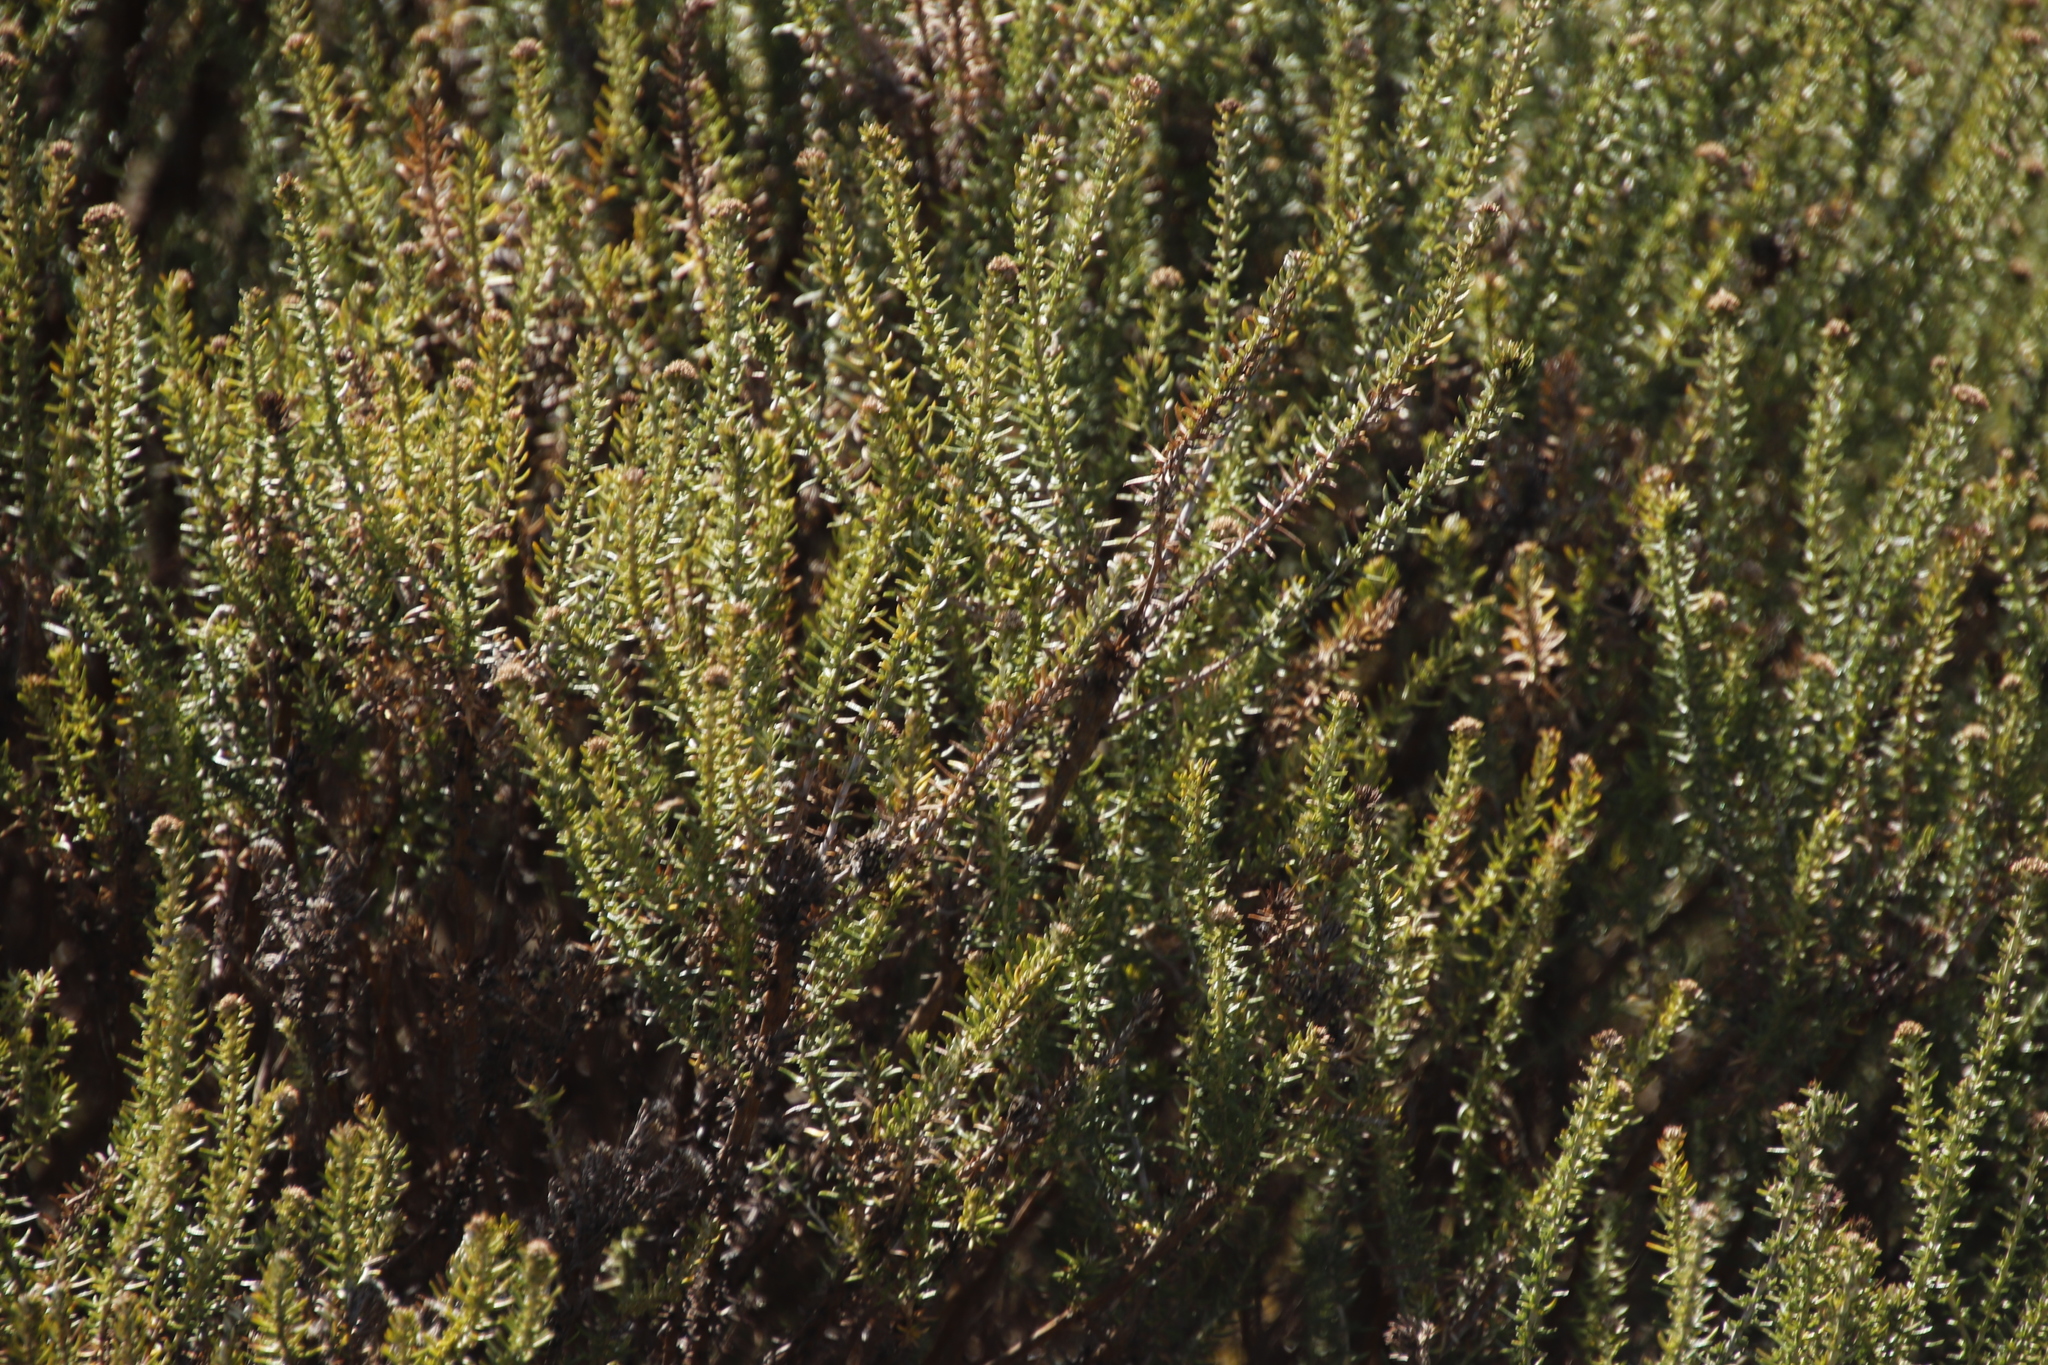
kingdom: Plantae
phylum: Tracheophyta
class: Magnoliopsida
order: Asterales
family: Asteraceae
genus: Metalasia
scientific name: Metalasia densa
